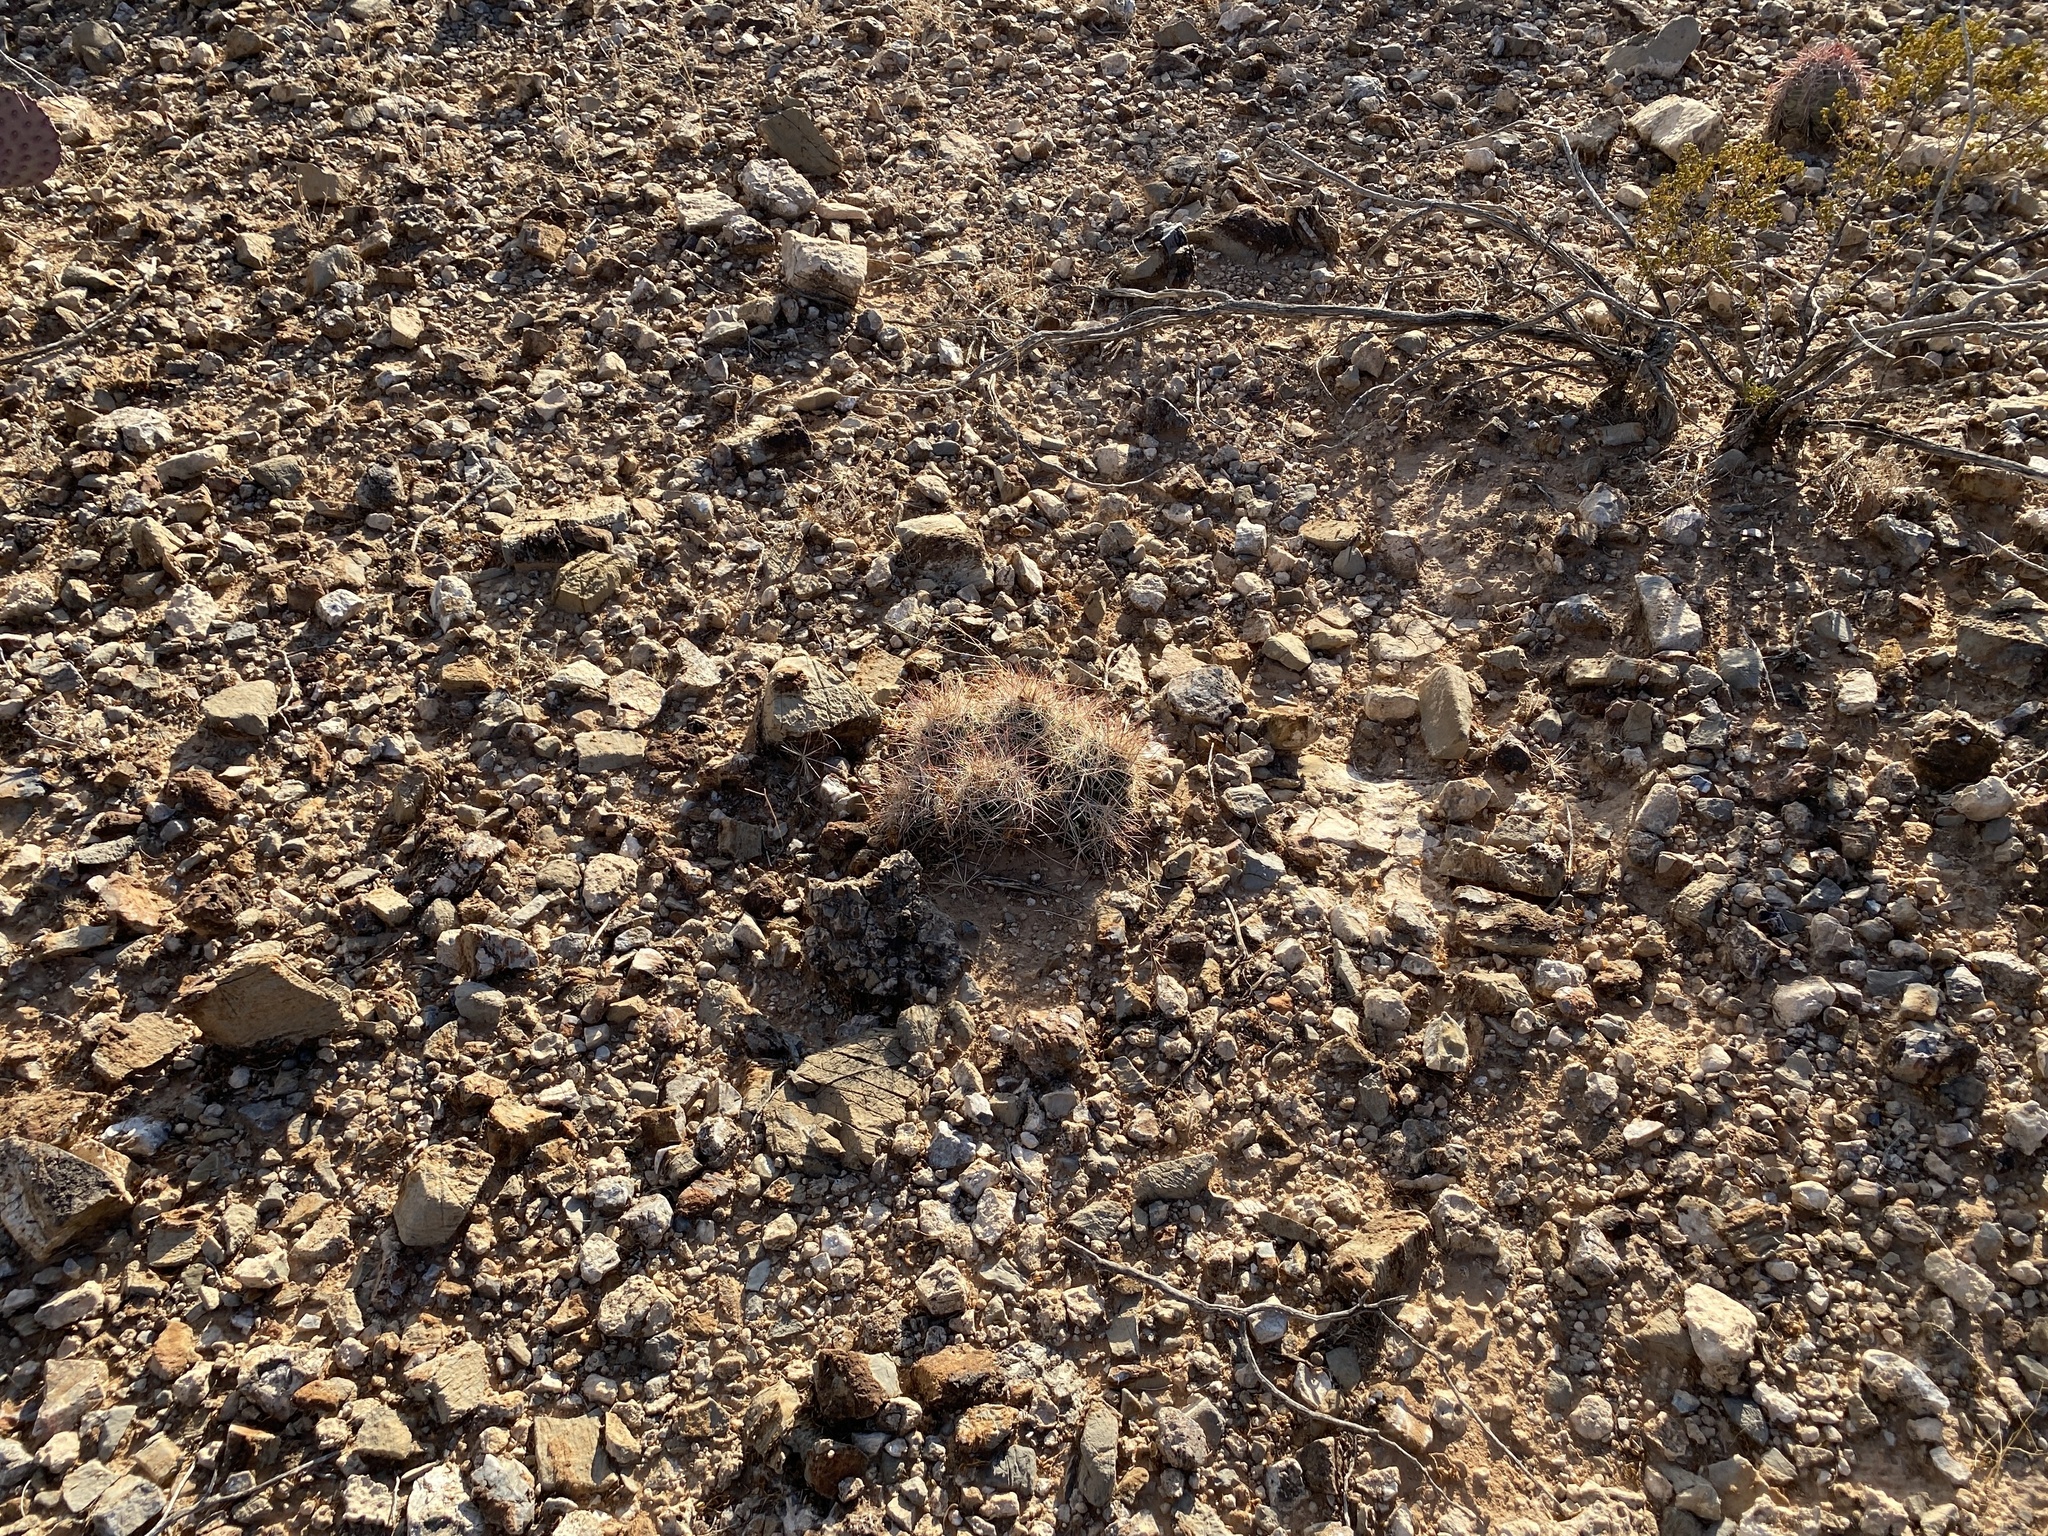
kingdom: Plantae
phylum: Tracheophyta
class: Magnoliopsida
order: Caryophyllales
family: Cactaceae
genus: Coryphantha
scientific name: Coryphantha macromeris
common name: Nipple beehive cactus
